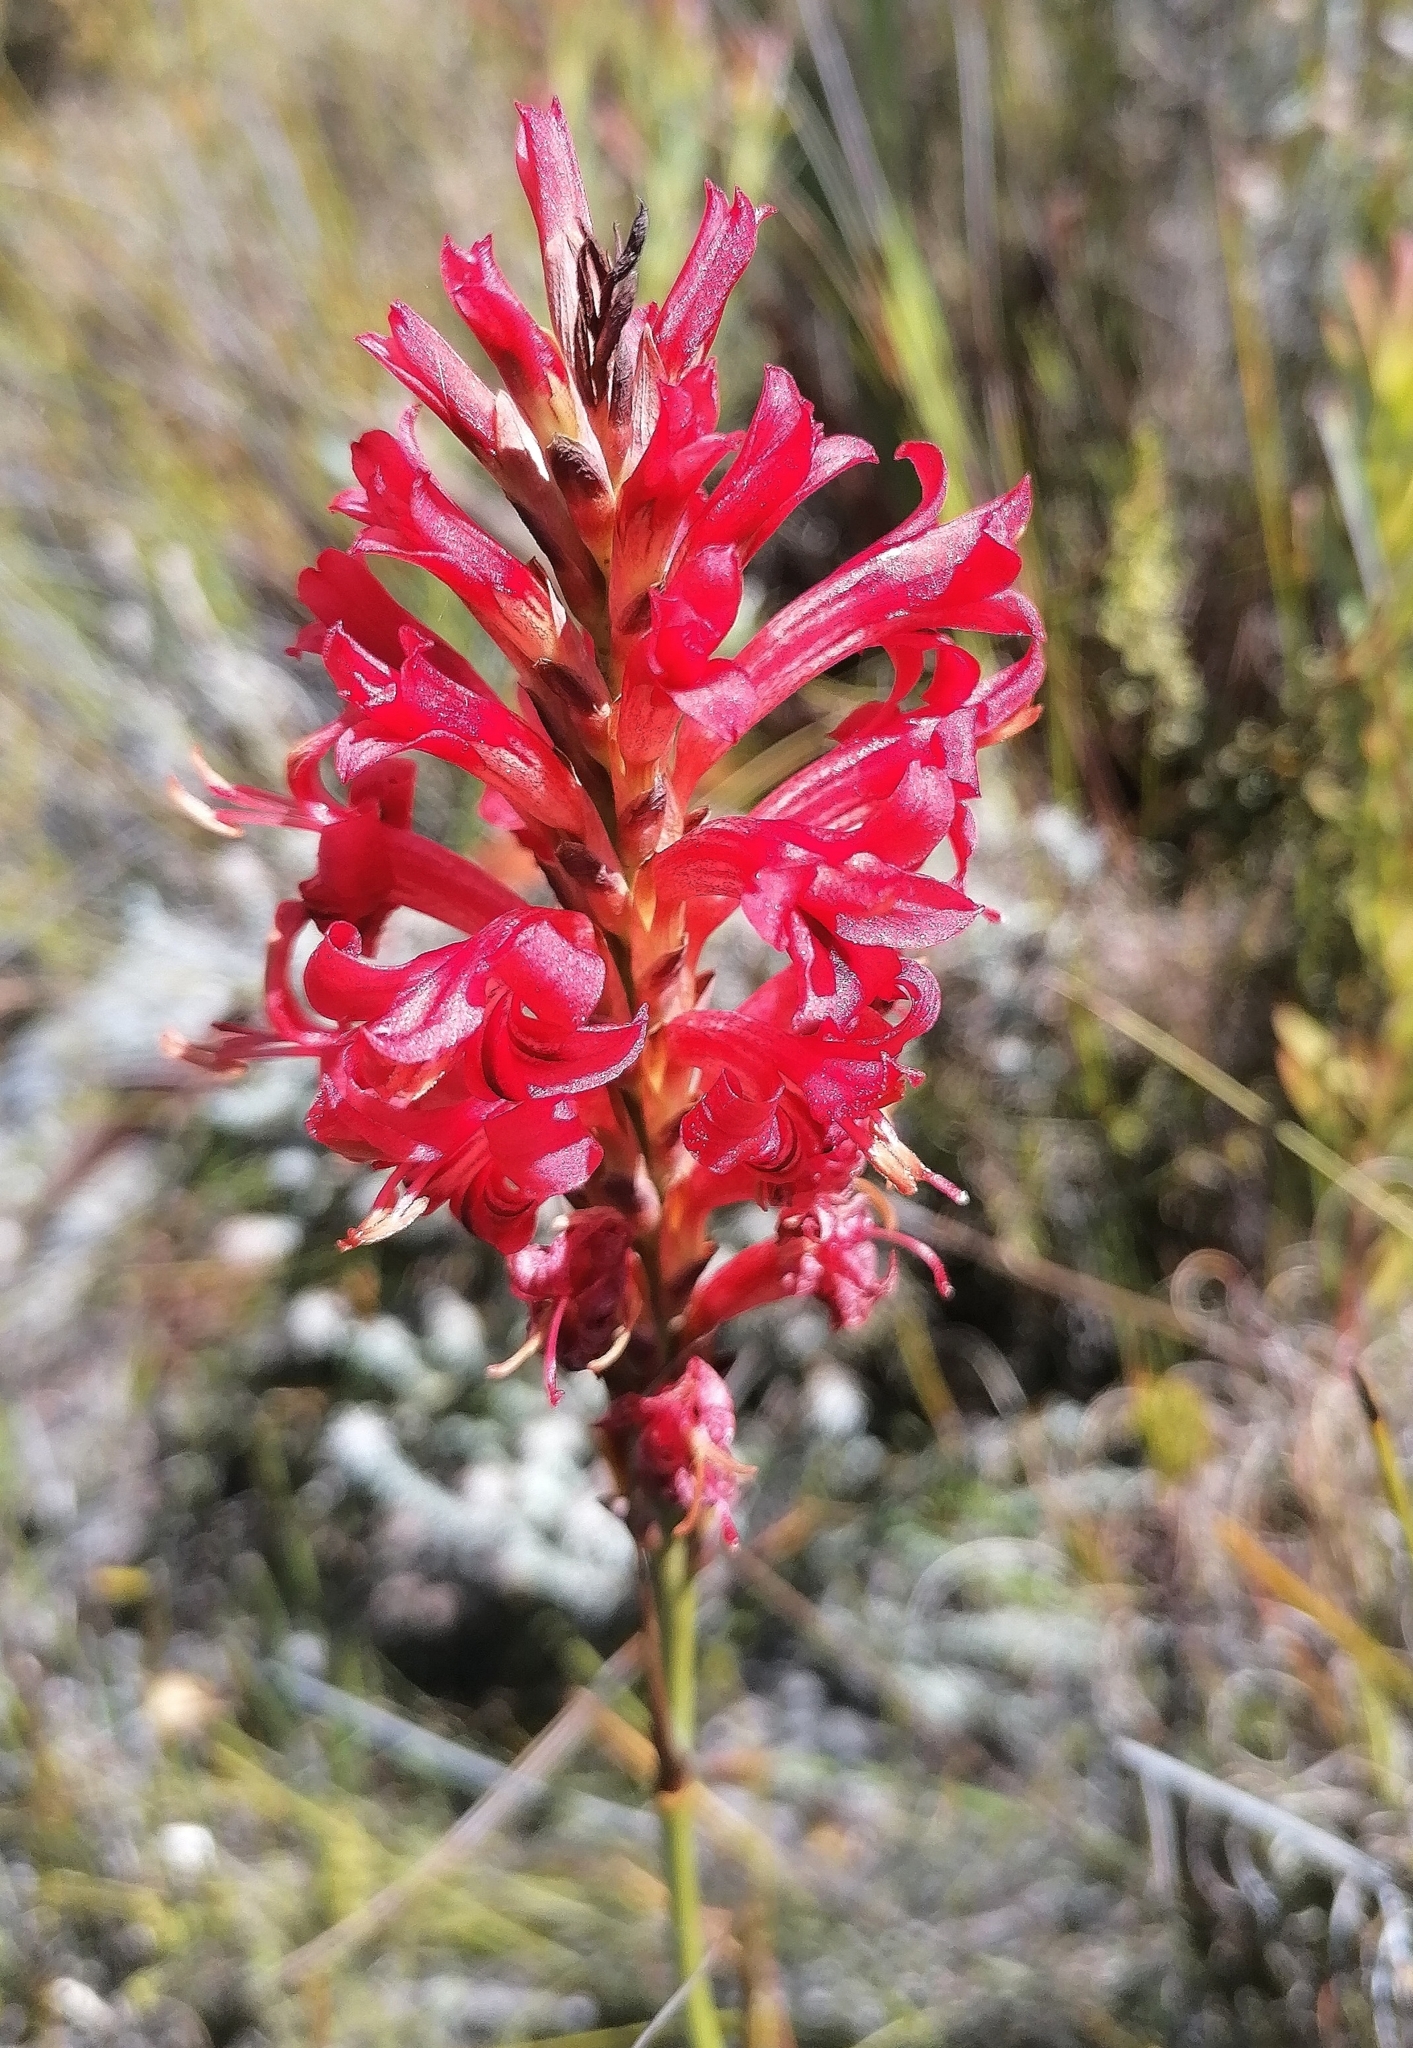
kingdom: Plantae
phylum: Tracheophyta
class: Liliopsida
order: Asparagales
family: Iridaceae
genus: Tritoniopsis
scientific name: Tritoniopsis triticea
